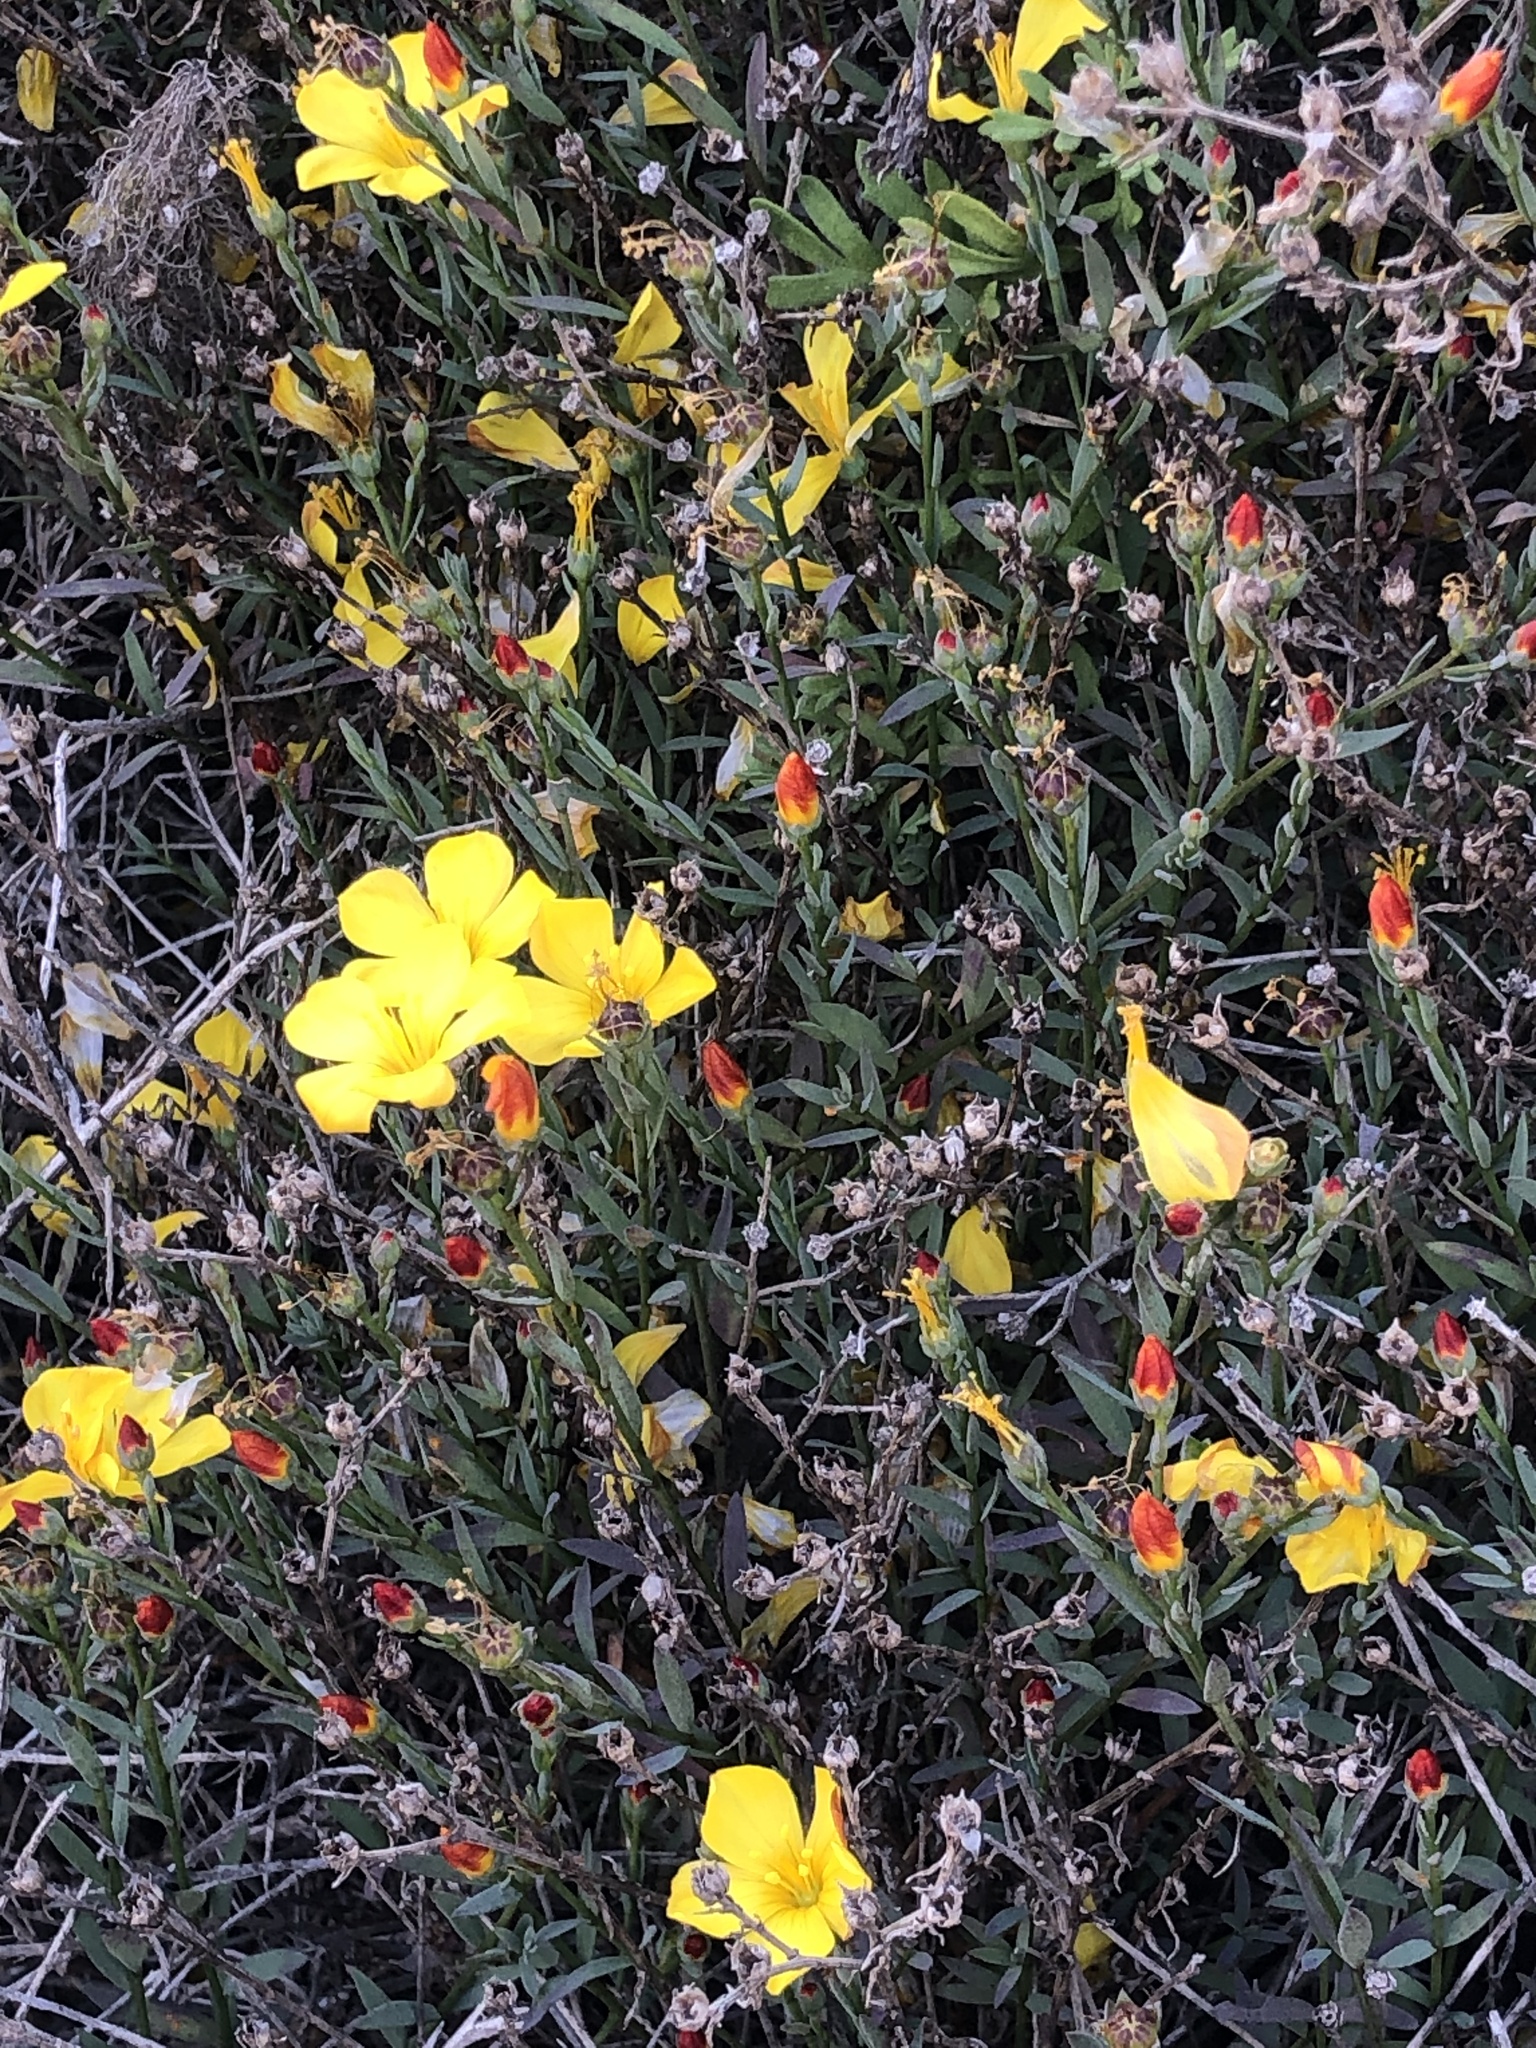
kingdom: Plantae
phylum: Tracheophyta
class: Magnoliopsida
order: Malpighiales
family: Linaceae
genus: Linum
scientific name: Linum ramosissimum
